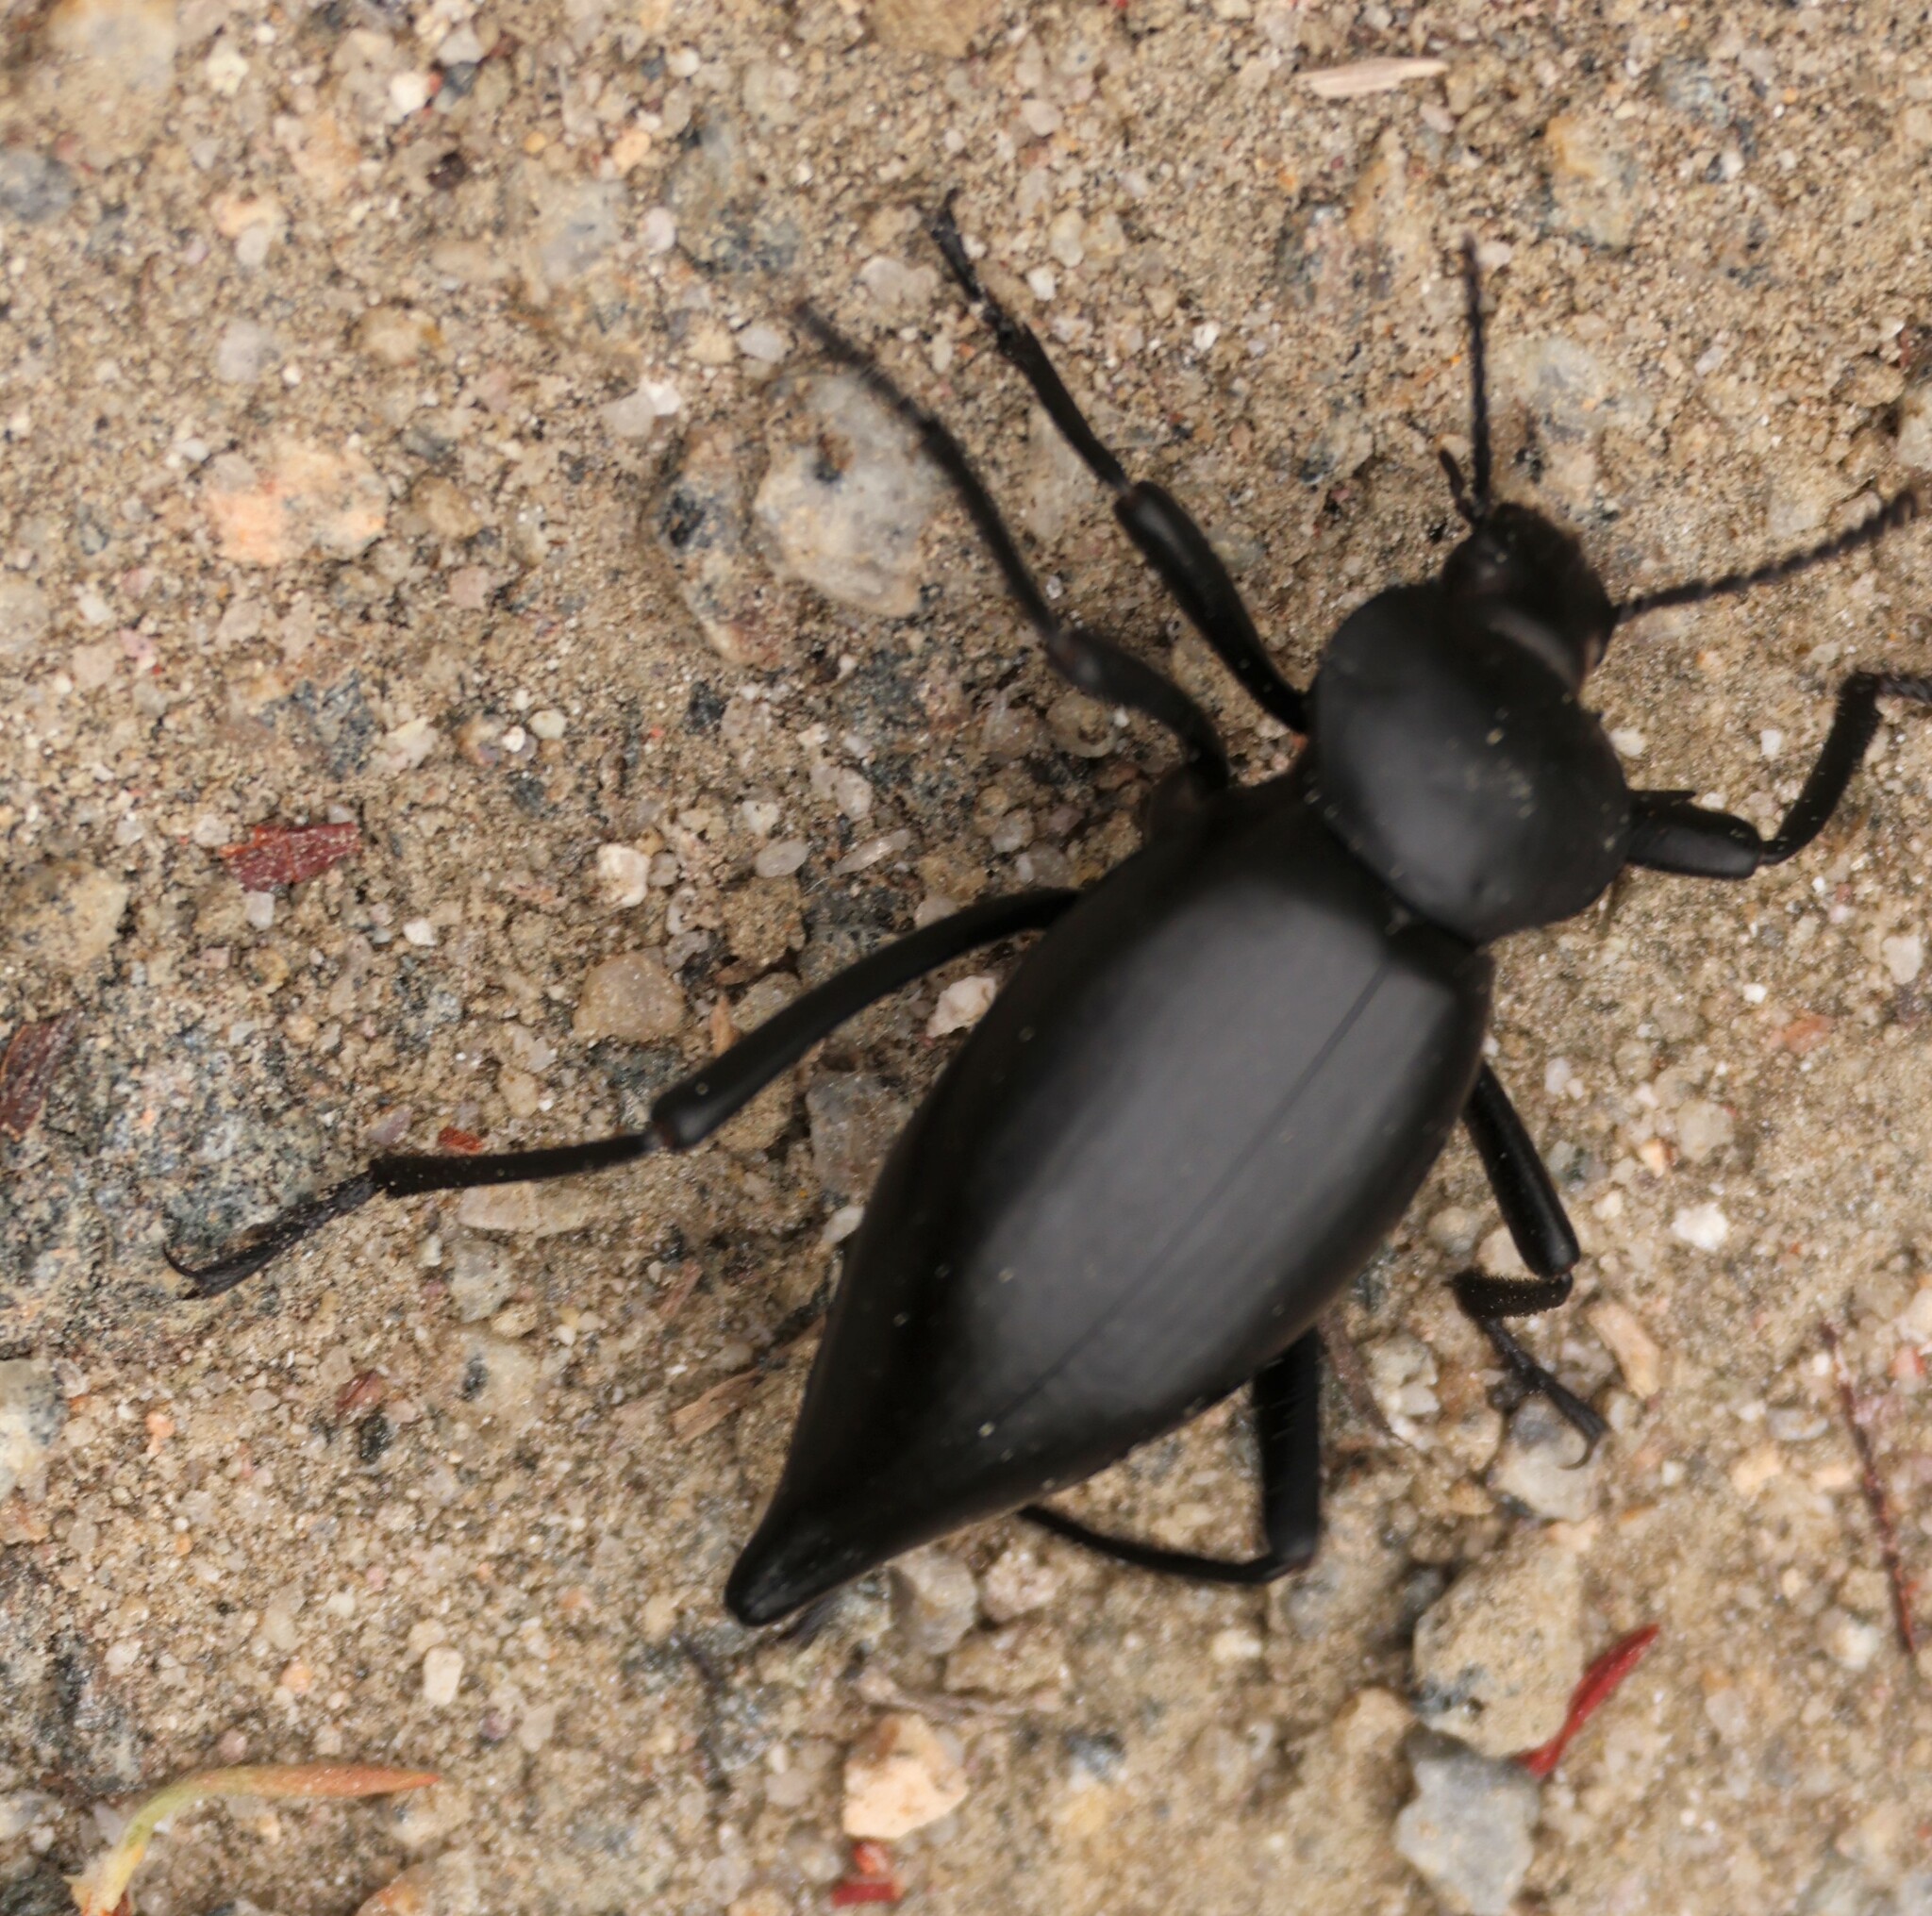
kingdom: Animalia
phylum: Arthropoda
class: Insecta
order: Coleoptera
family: Tenebrionidae
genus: Eleodes
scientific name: Eleodes acuticauda
